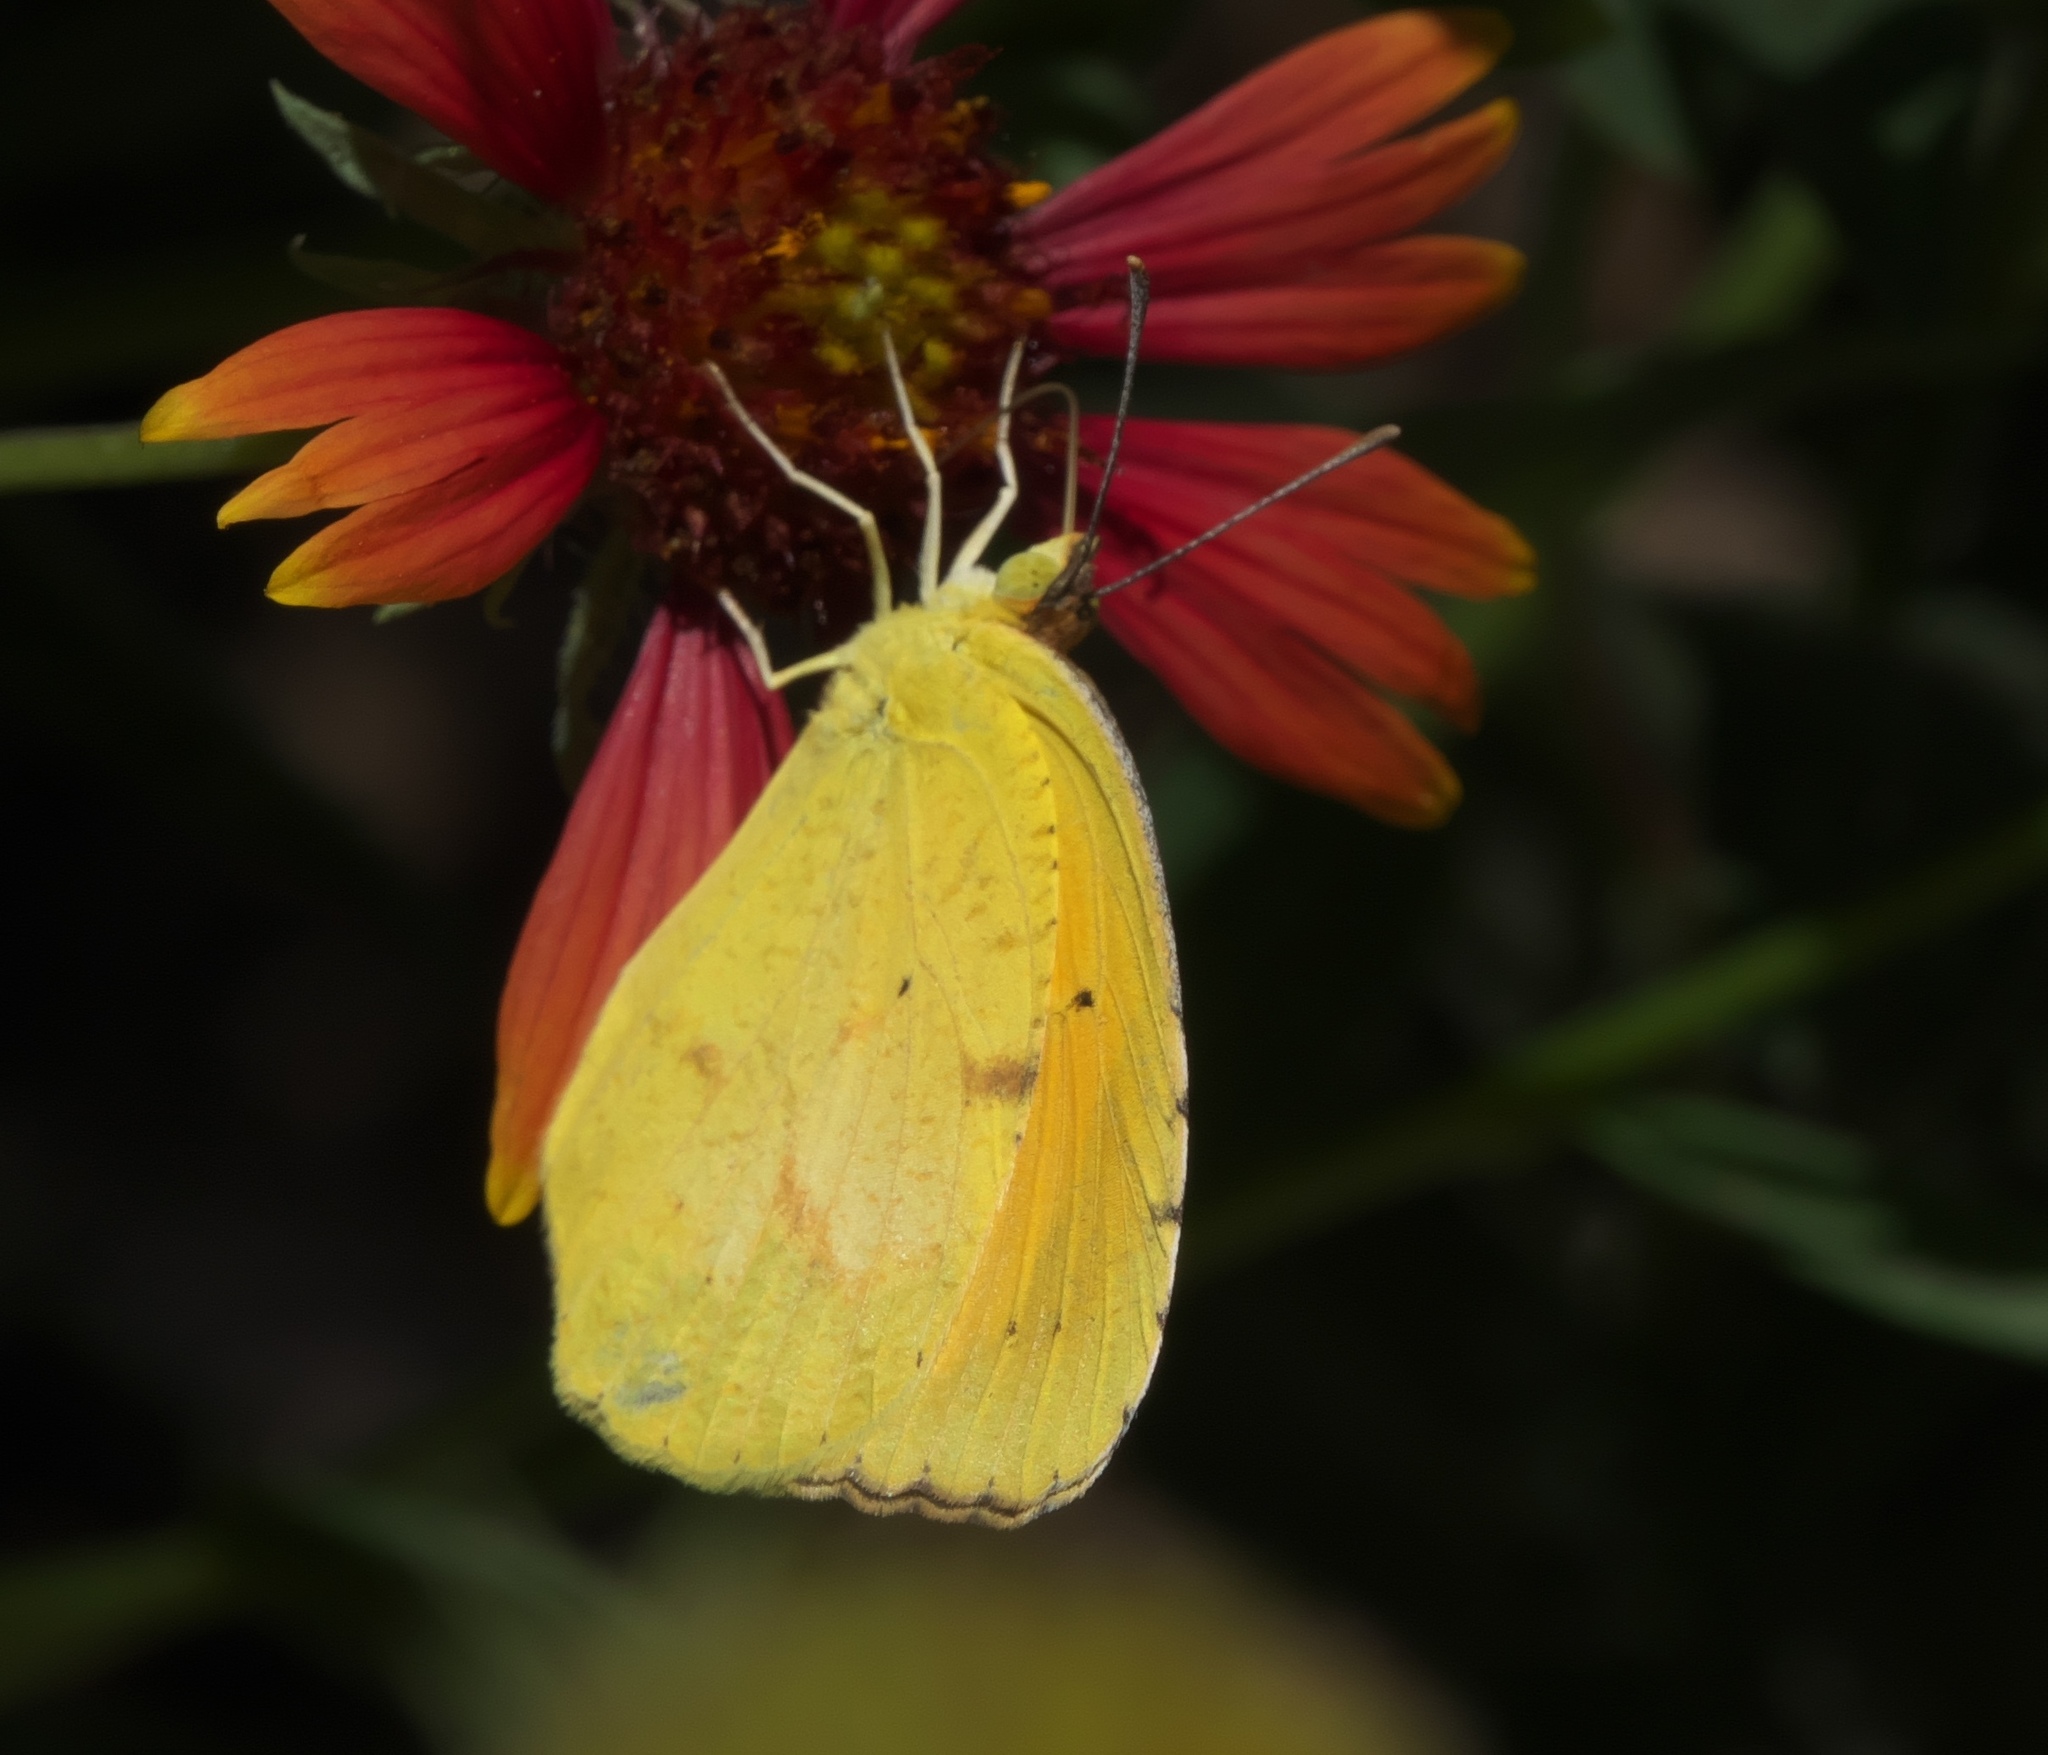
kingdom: Animalia
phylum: Arthropoda
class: Insecta
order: Lepidoptera
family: Pieridae
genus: Abaeis
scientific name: Abaeis nicippe
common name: Sleepy orange
